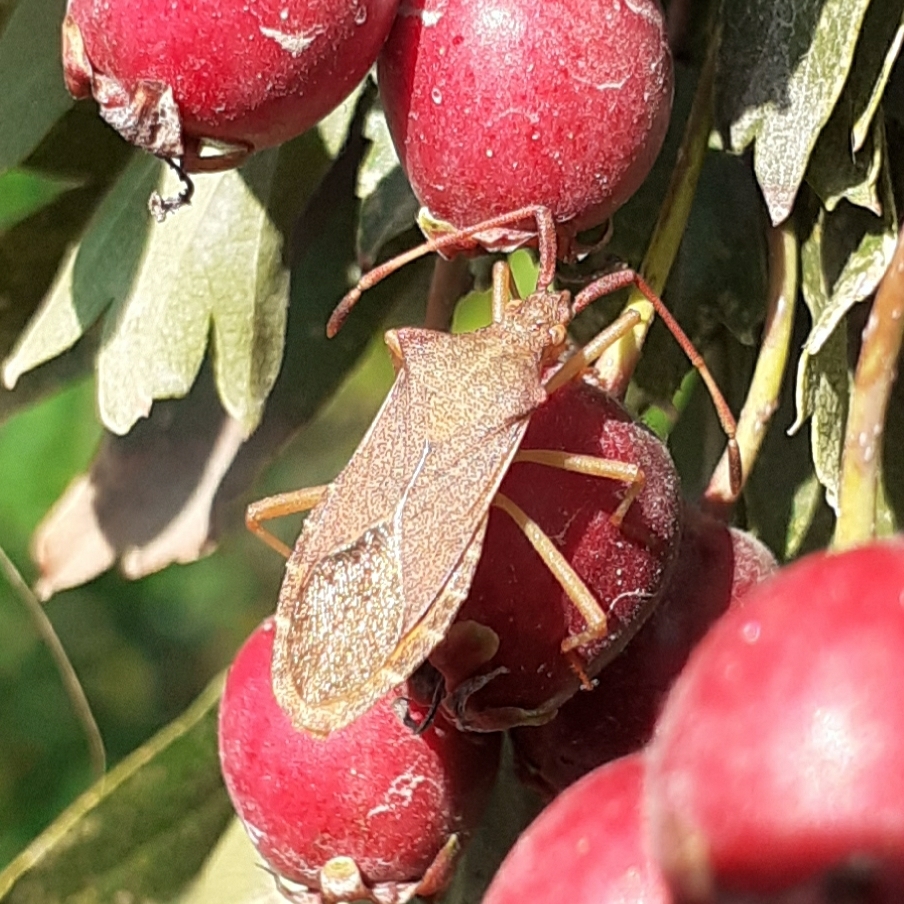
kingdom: Animalia
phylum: Arthropoda
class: Insecta
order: Hemiptera
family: Coreidae
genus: Gonocerus
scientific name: Gonocerus acuteangulatus
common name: Box bug
